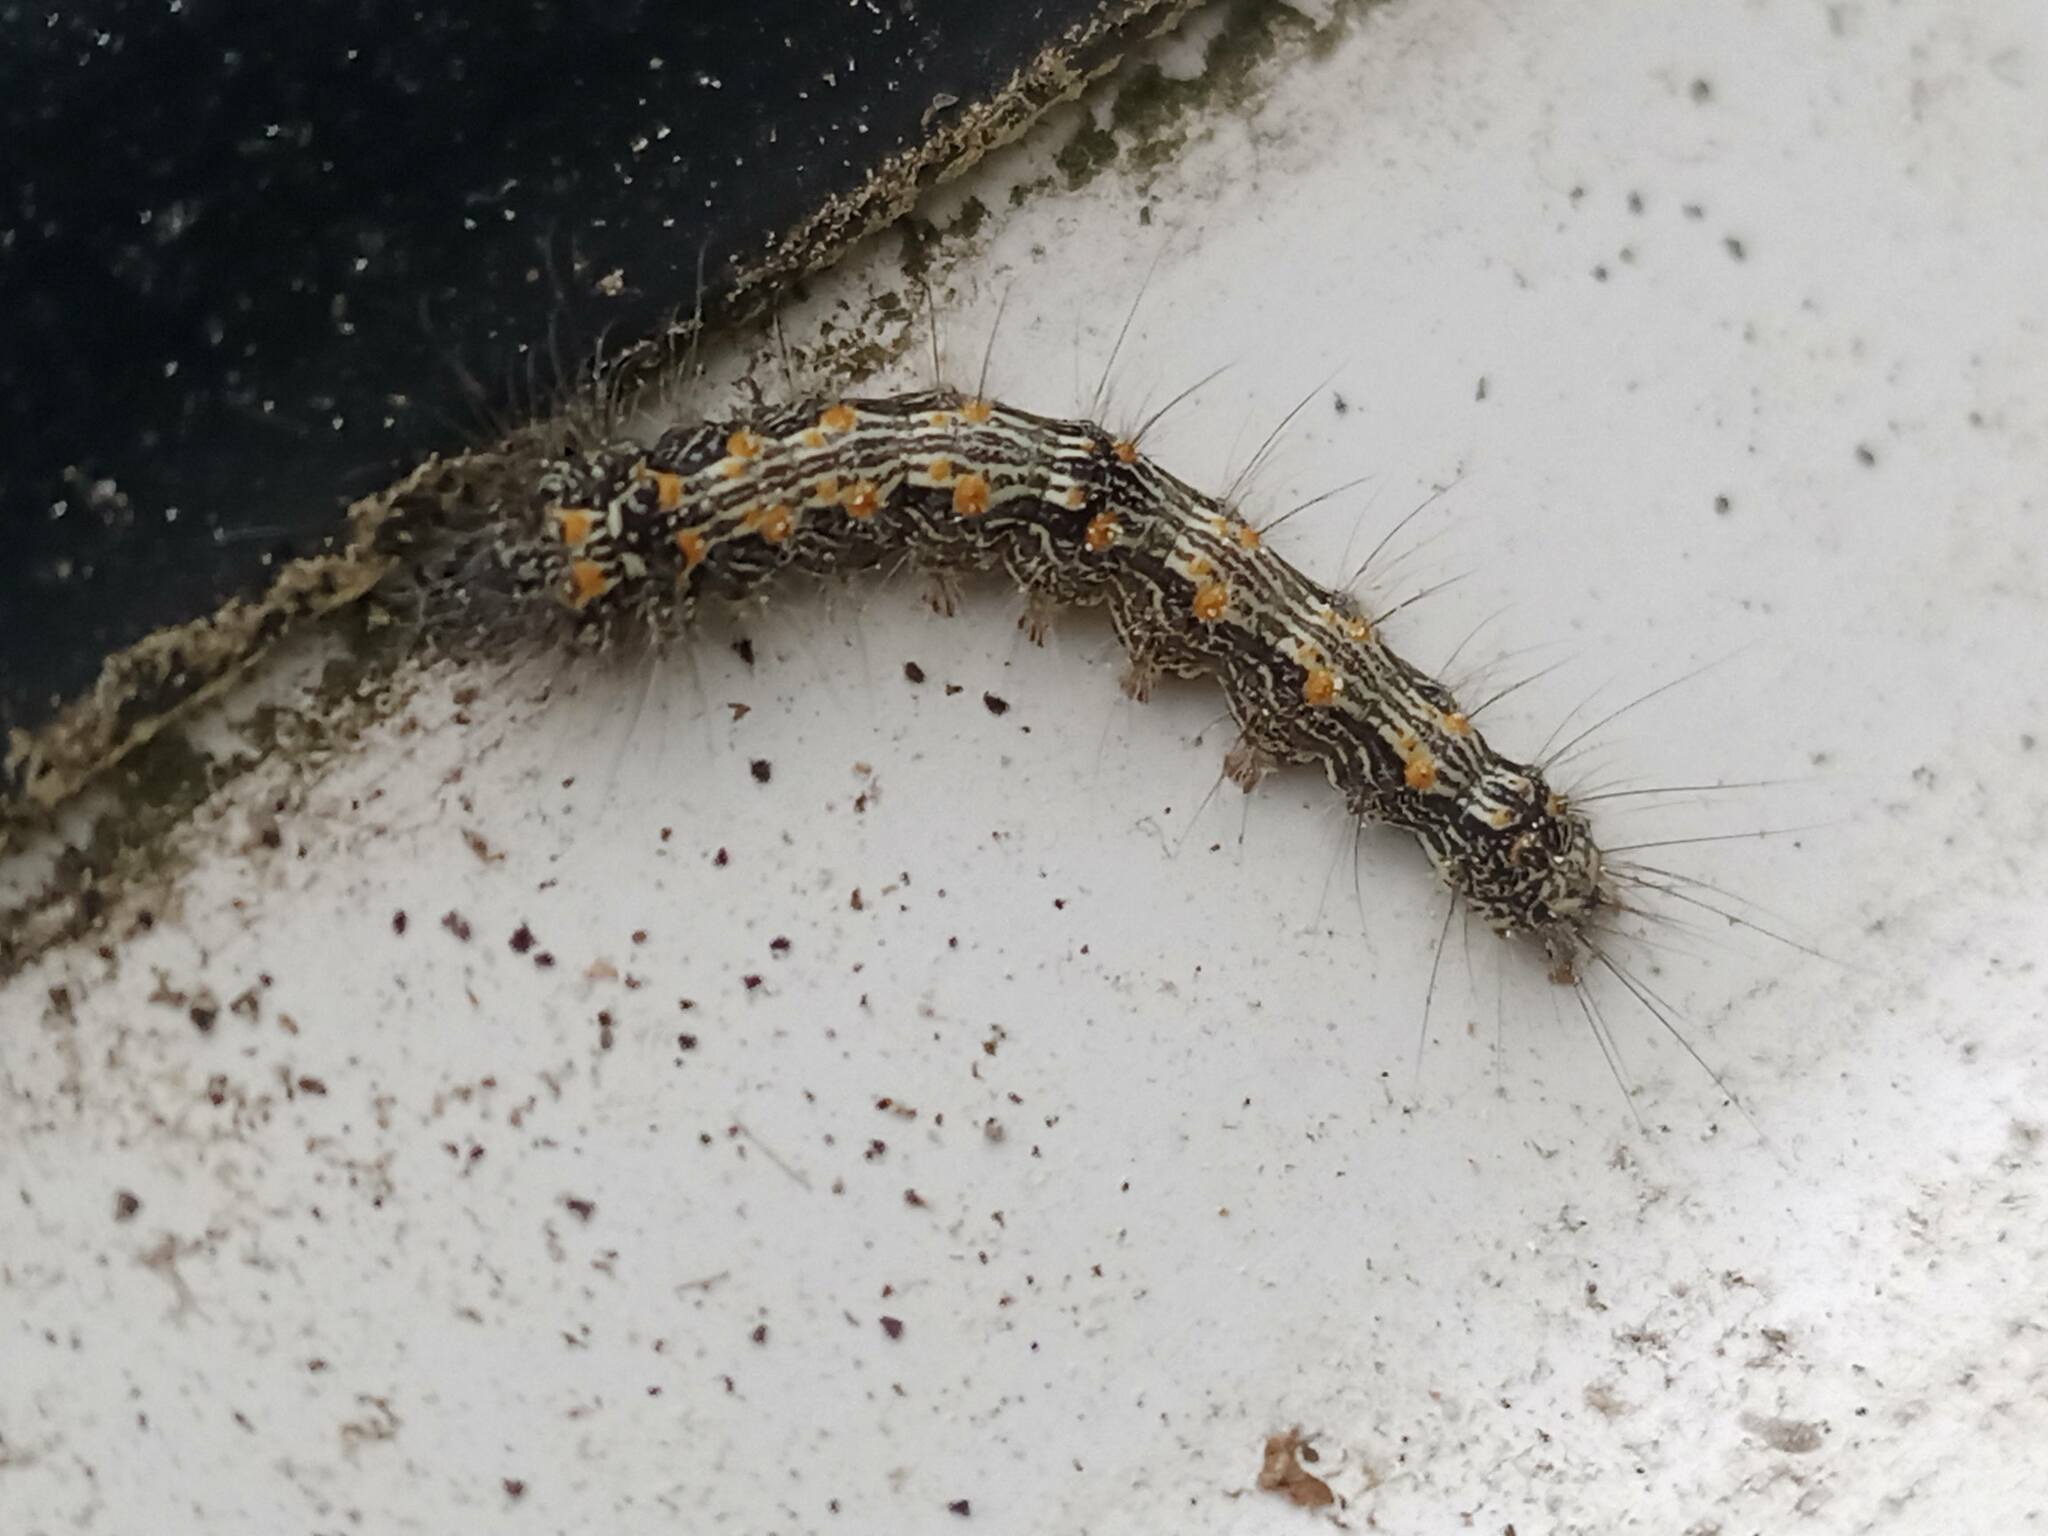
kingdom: Animalia
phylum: Arthropoda
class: Insecta
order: Lepidoptera
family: Erebidae
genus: Lithosia
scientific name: Lithosia quadra
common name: Four-spotted footman
